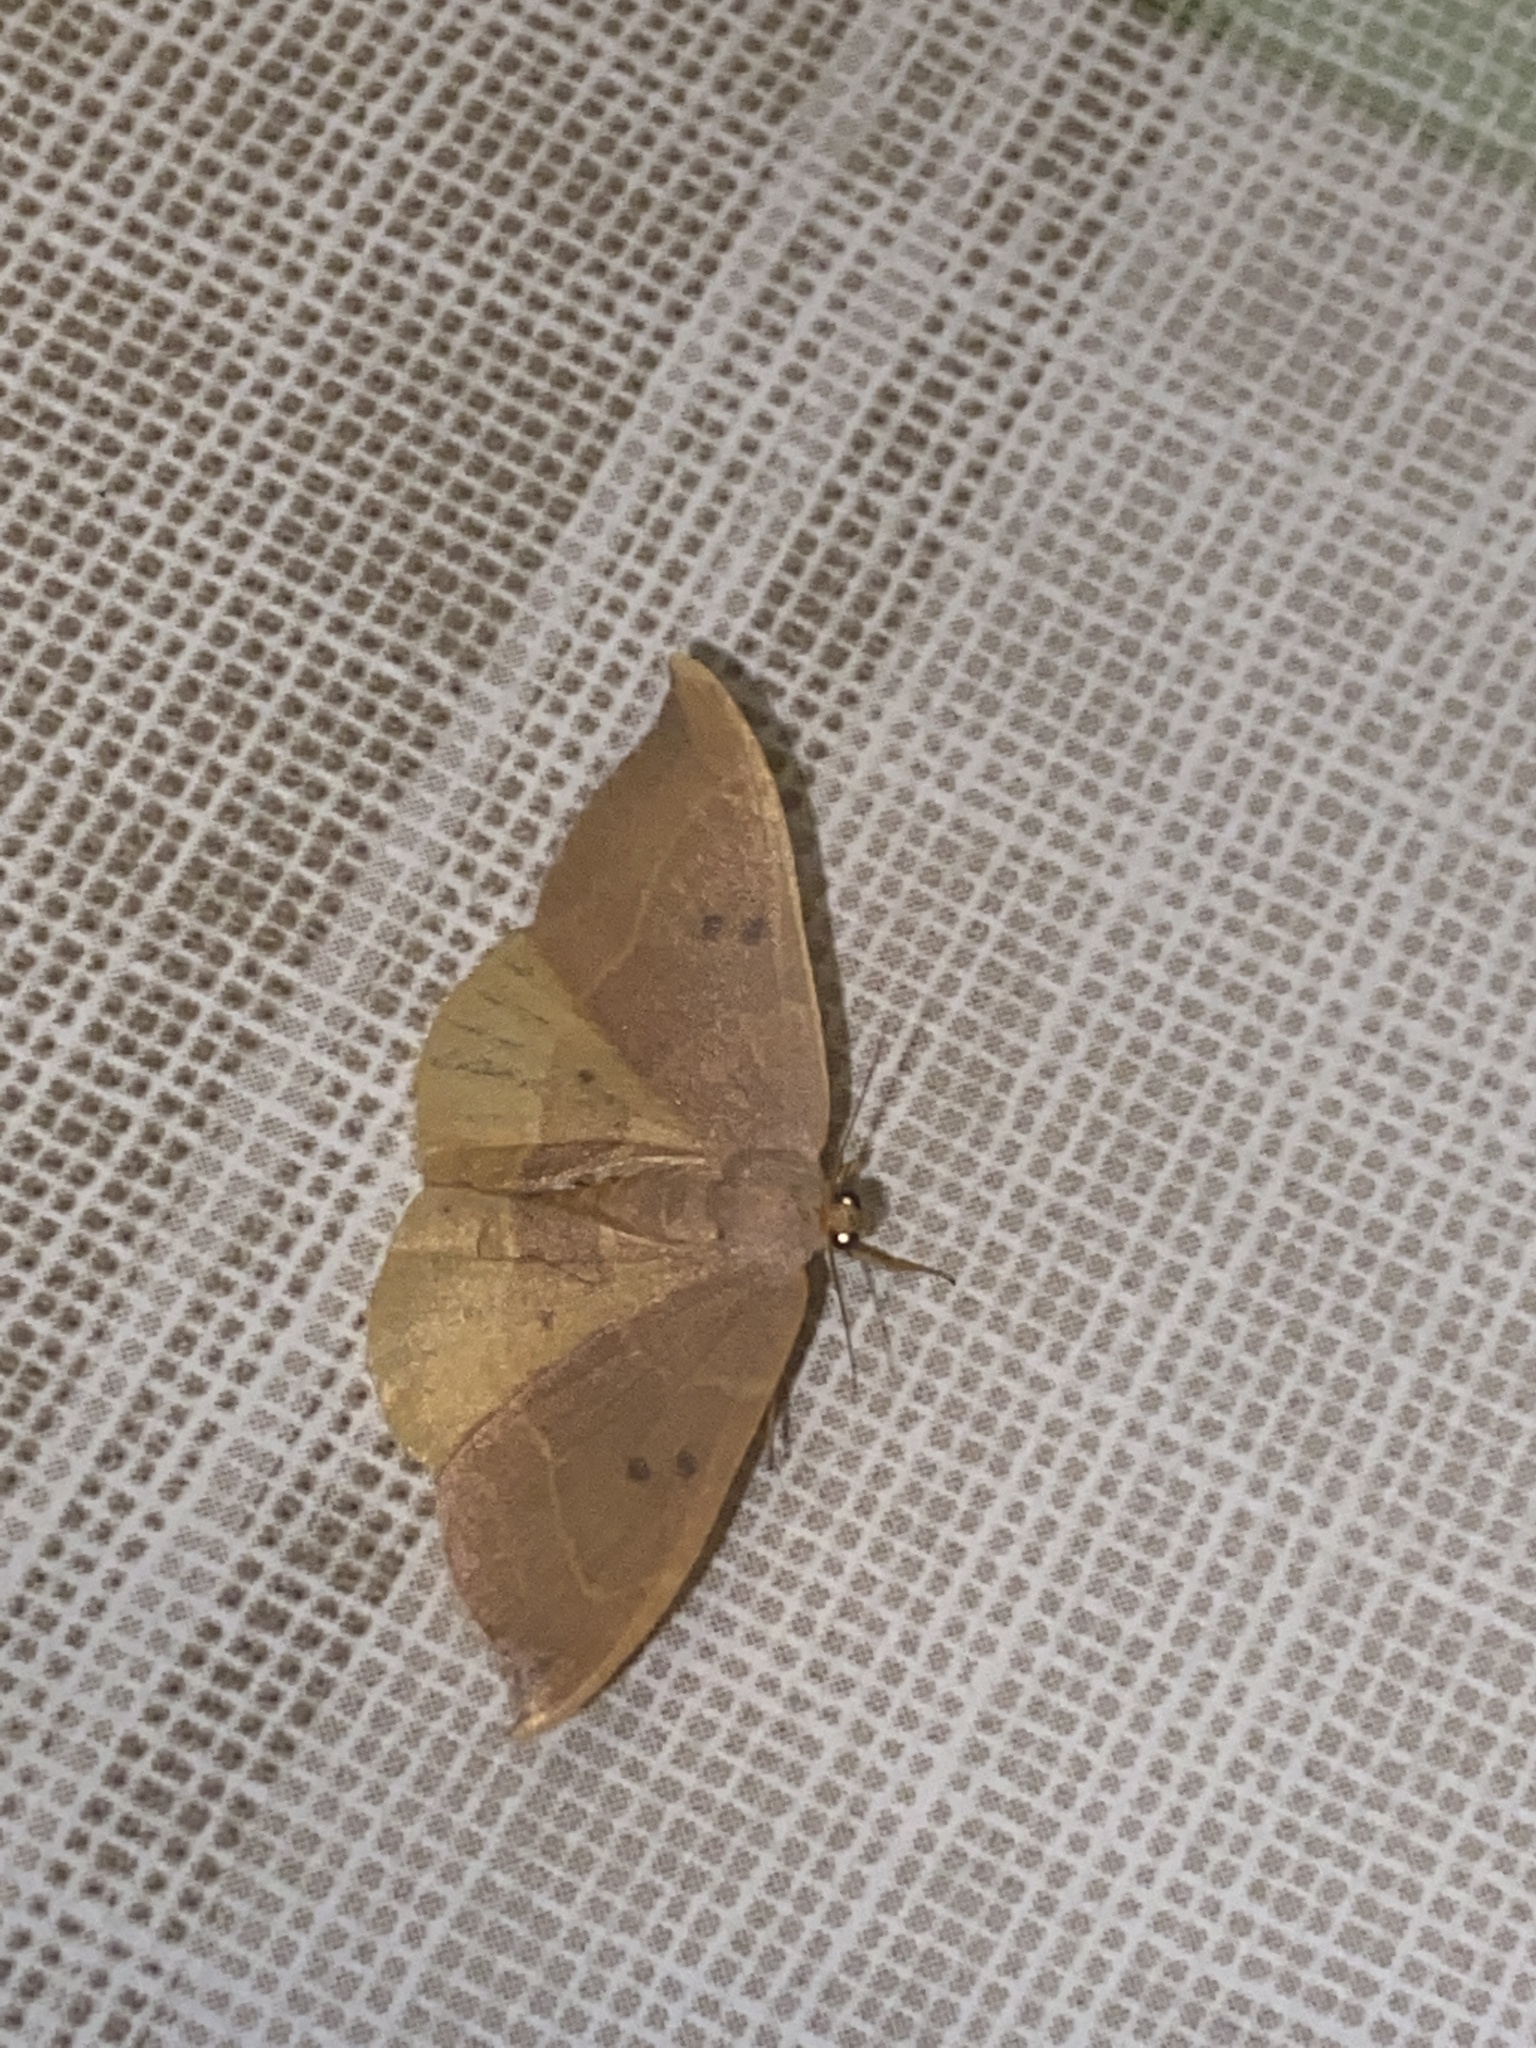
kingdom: Animalia
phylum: Arthropoda
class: Insecta
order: Lepidoptera
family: Drepanidae
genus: Watsonalla
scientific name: Watsonalla binaria
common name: Oak hook-tip
